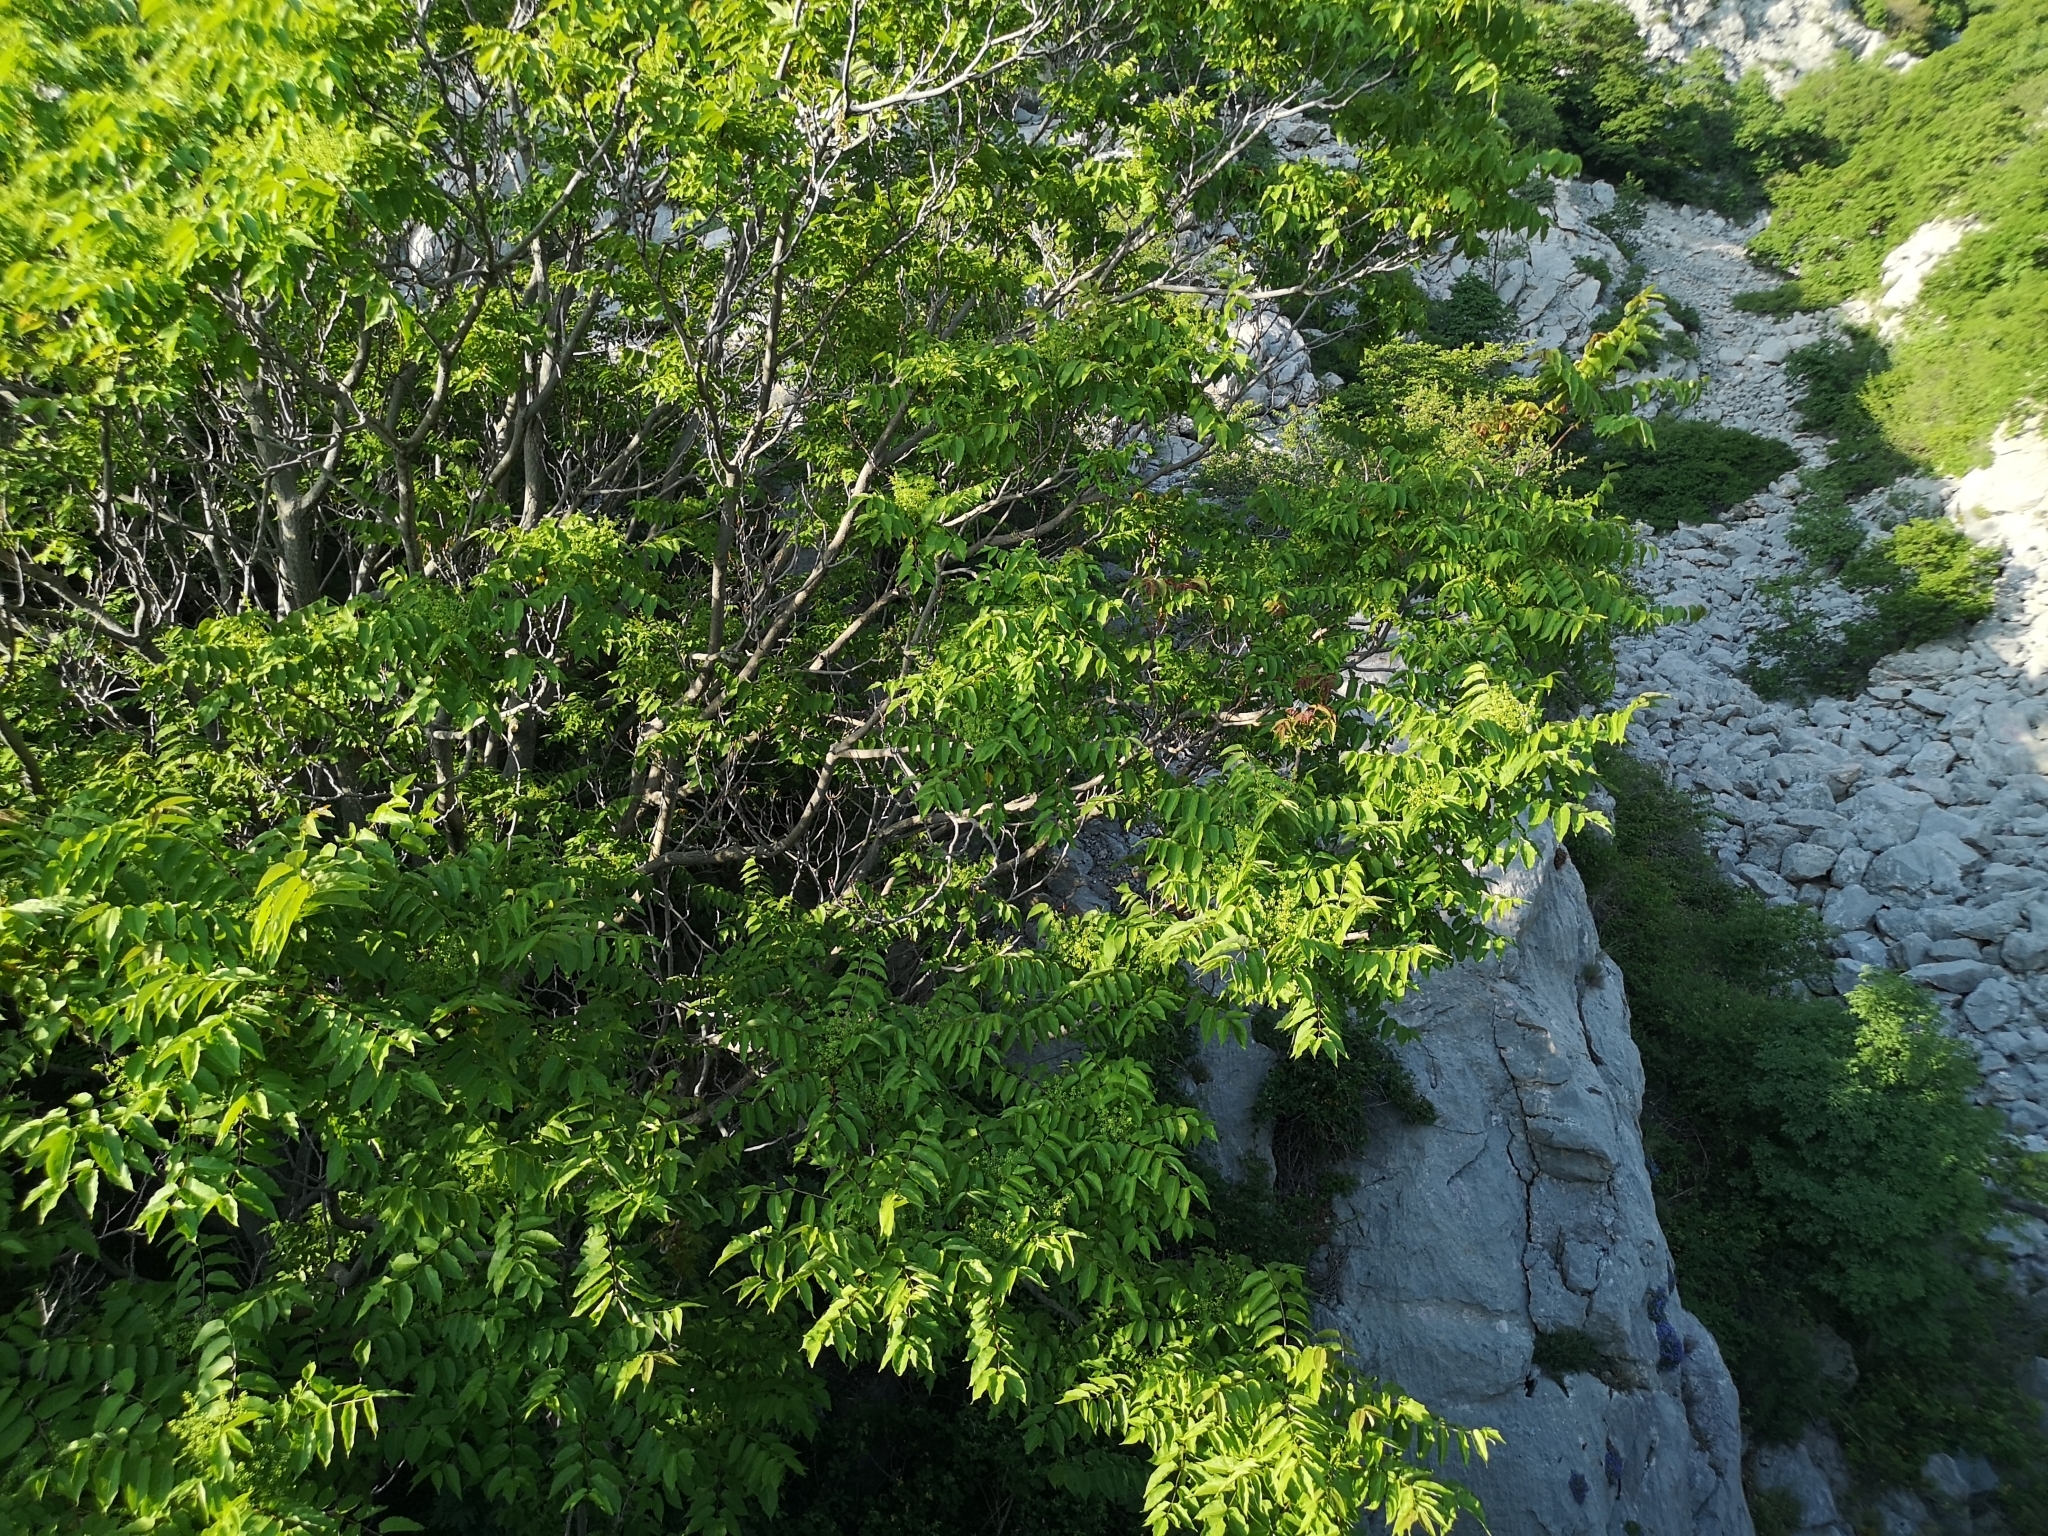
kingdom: Plantae
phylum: Tracheophyta
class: Magnoliopsida
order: Sapindales
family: Simaroubaceae
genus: Ailanthus
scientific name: Ailanthus altissima
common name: Tree-of-heaven
